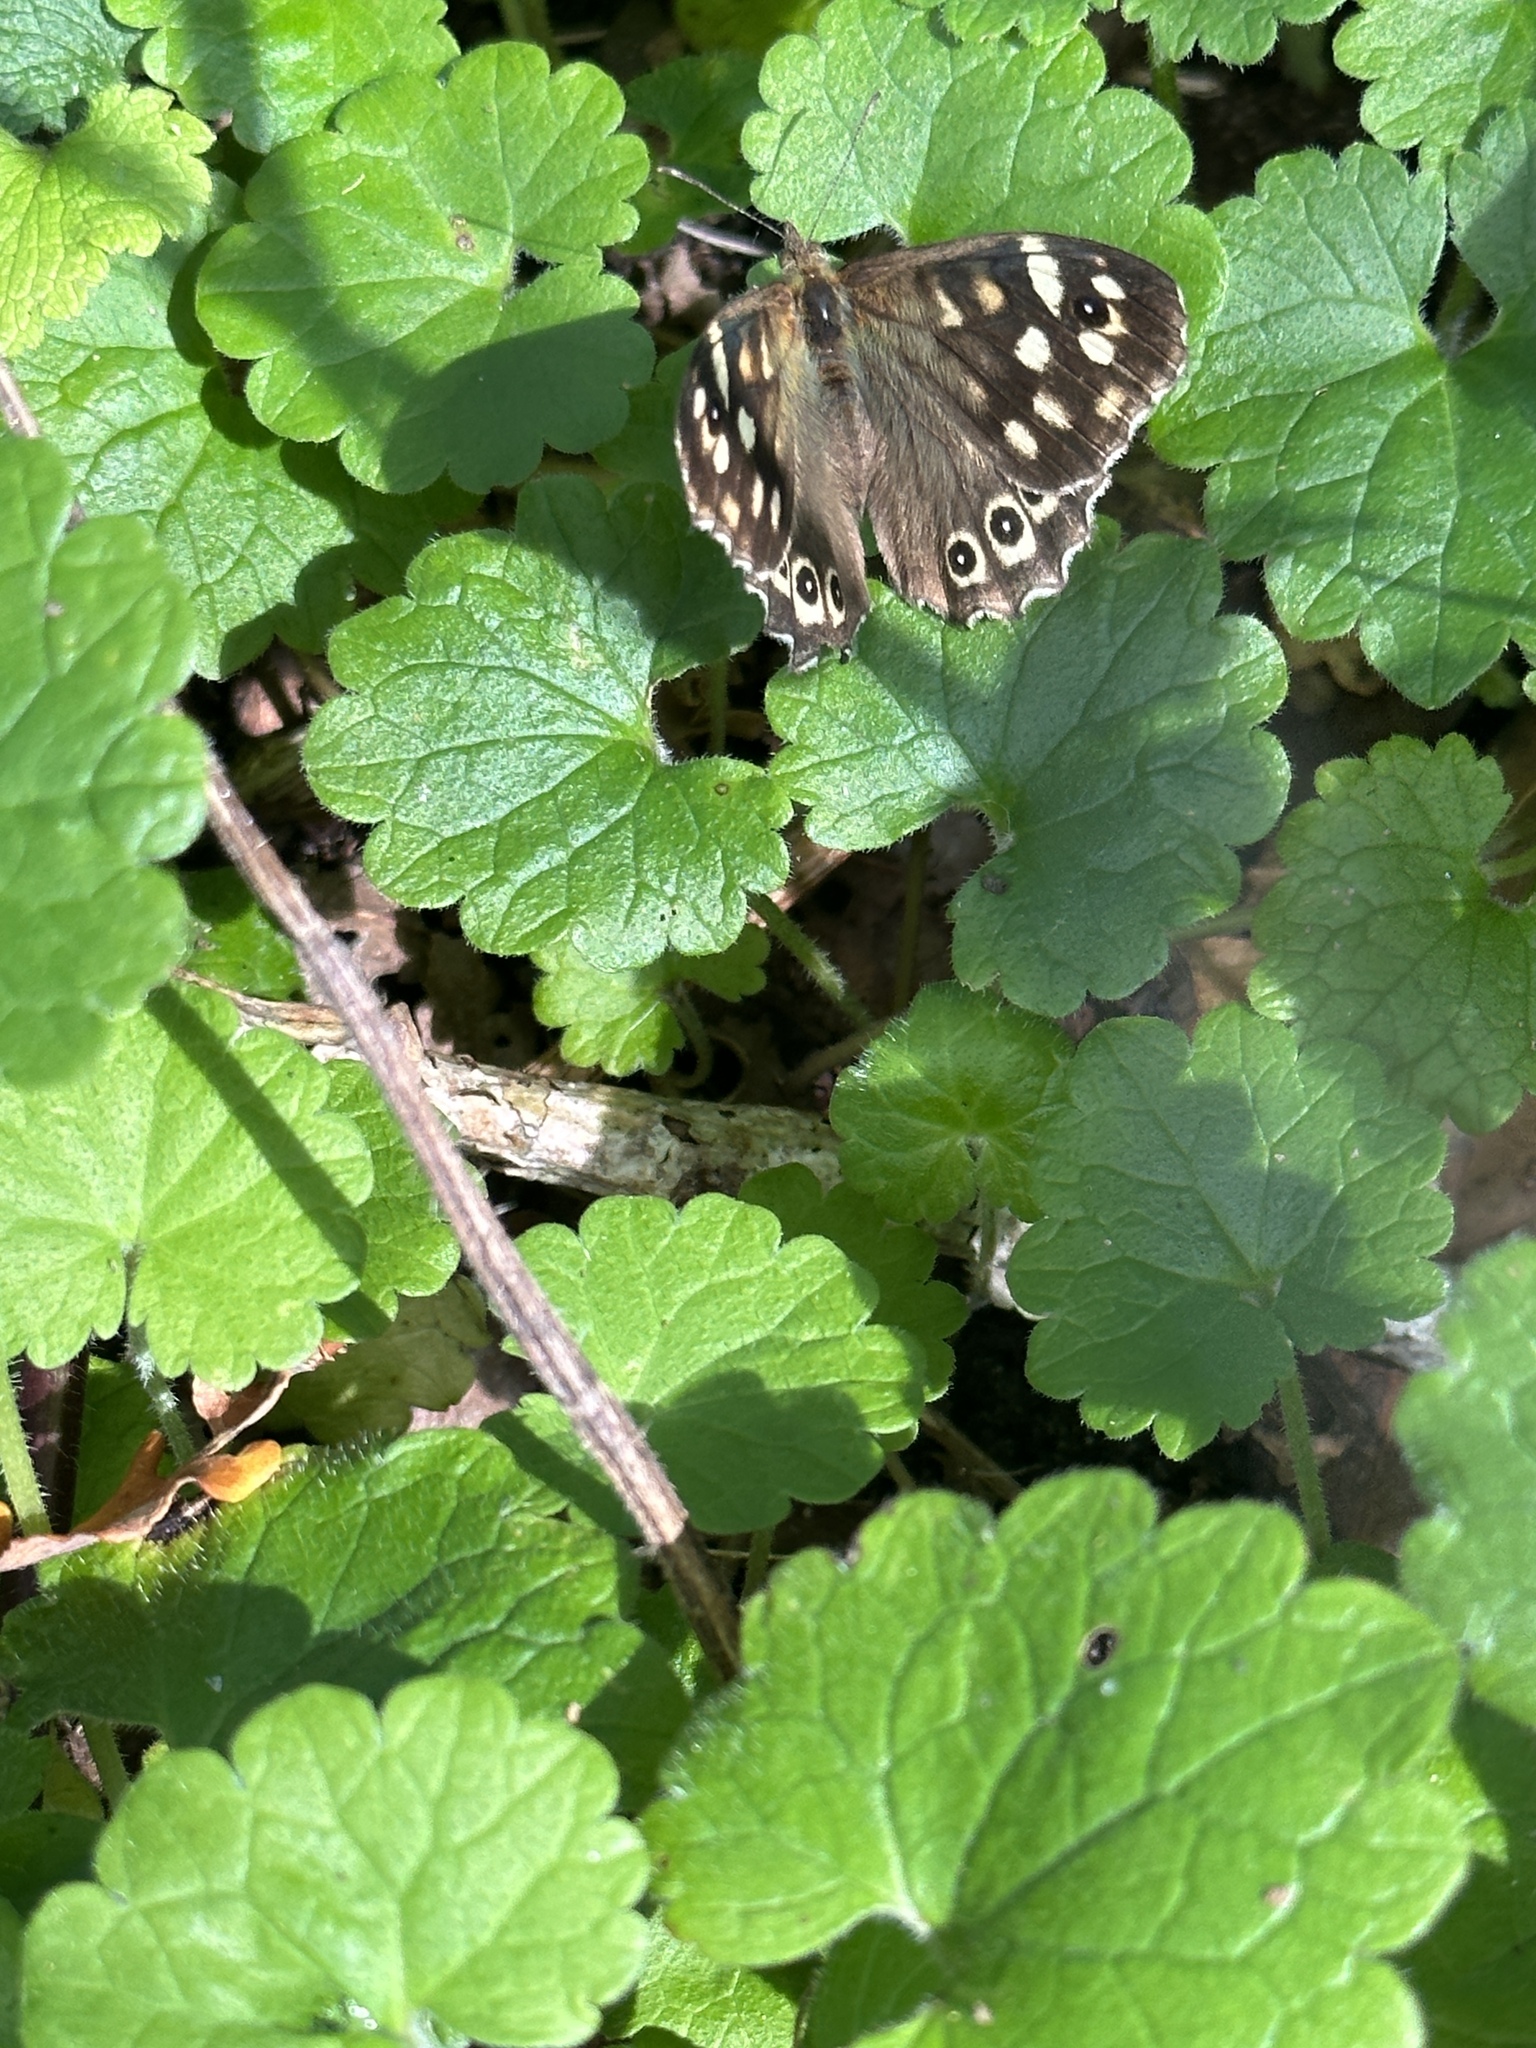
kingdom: Animalia
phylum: Arthropoda
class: Insecta
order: Lepidoptera
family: Nymphalidae
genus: Pararge
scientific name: Pararge aegeria
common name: Speckled wood
